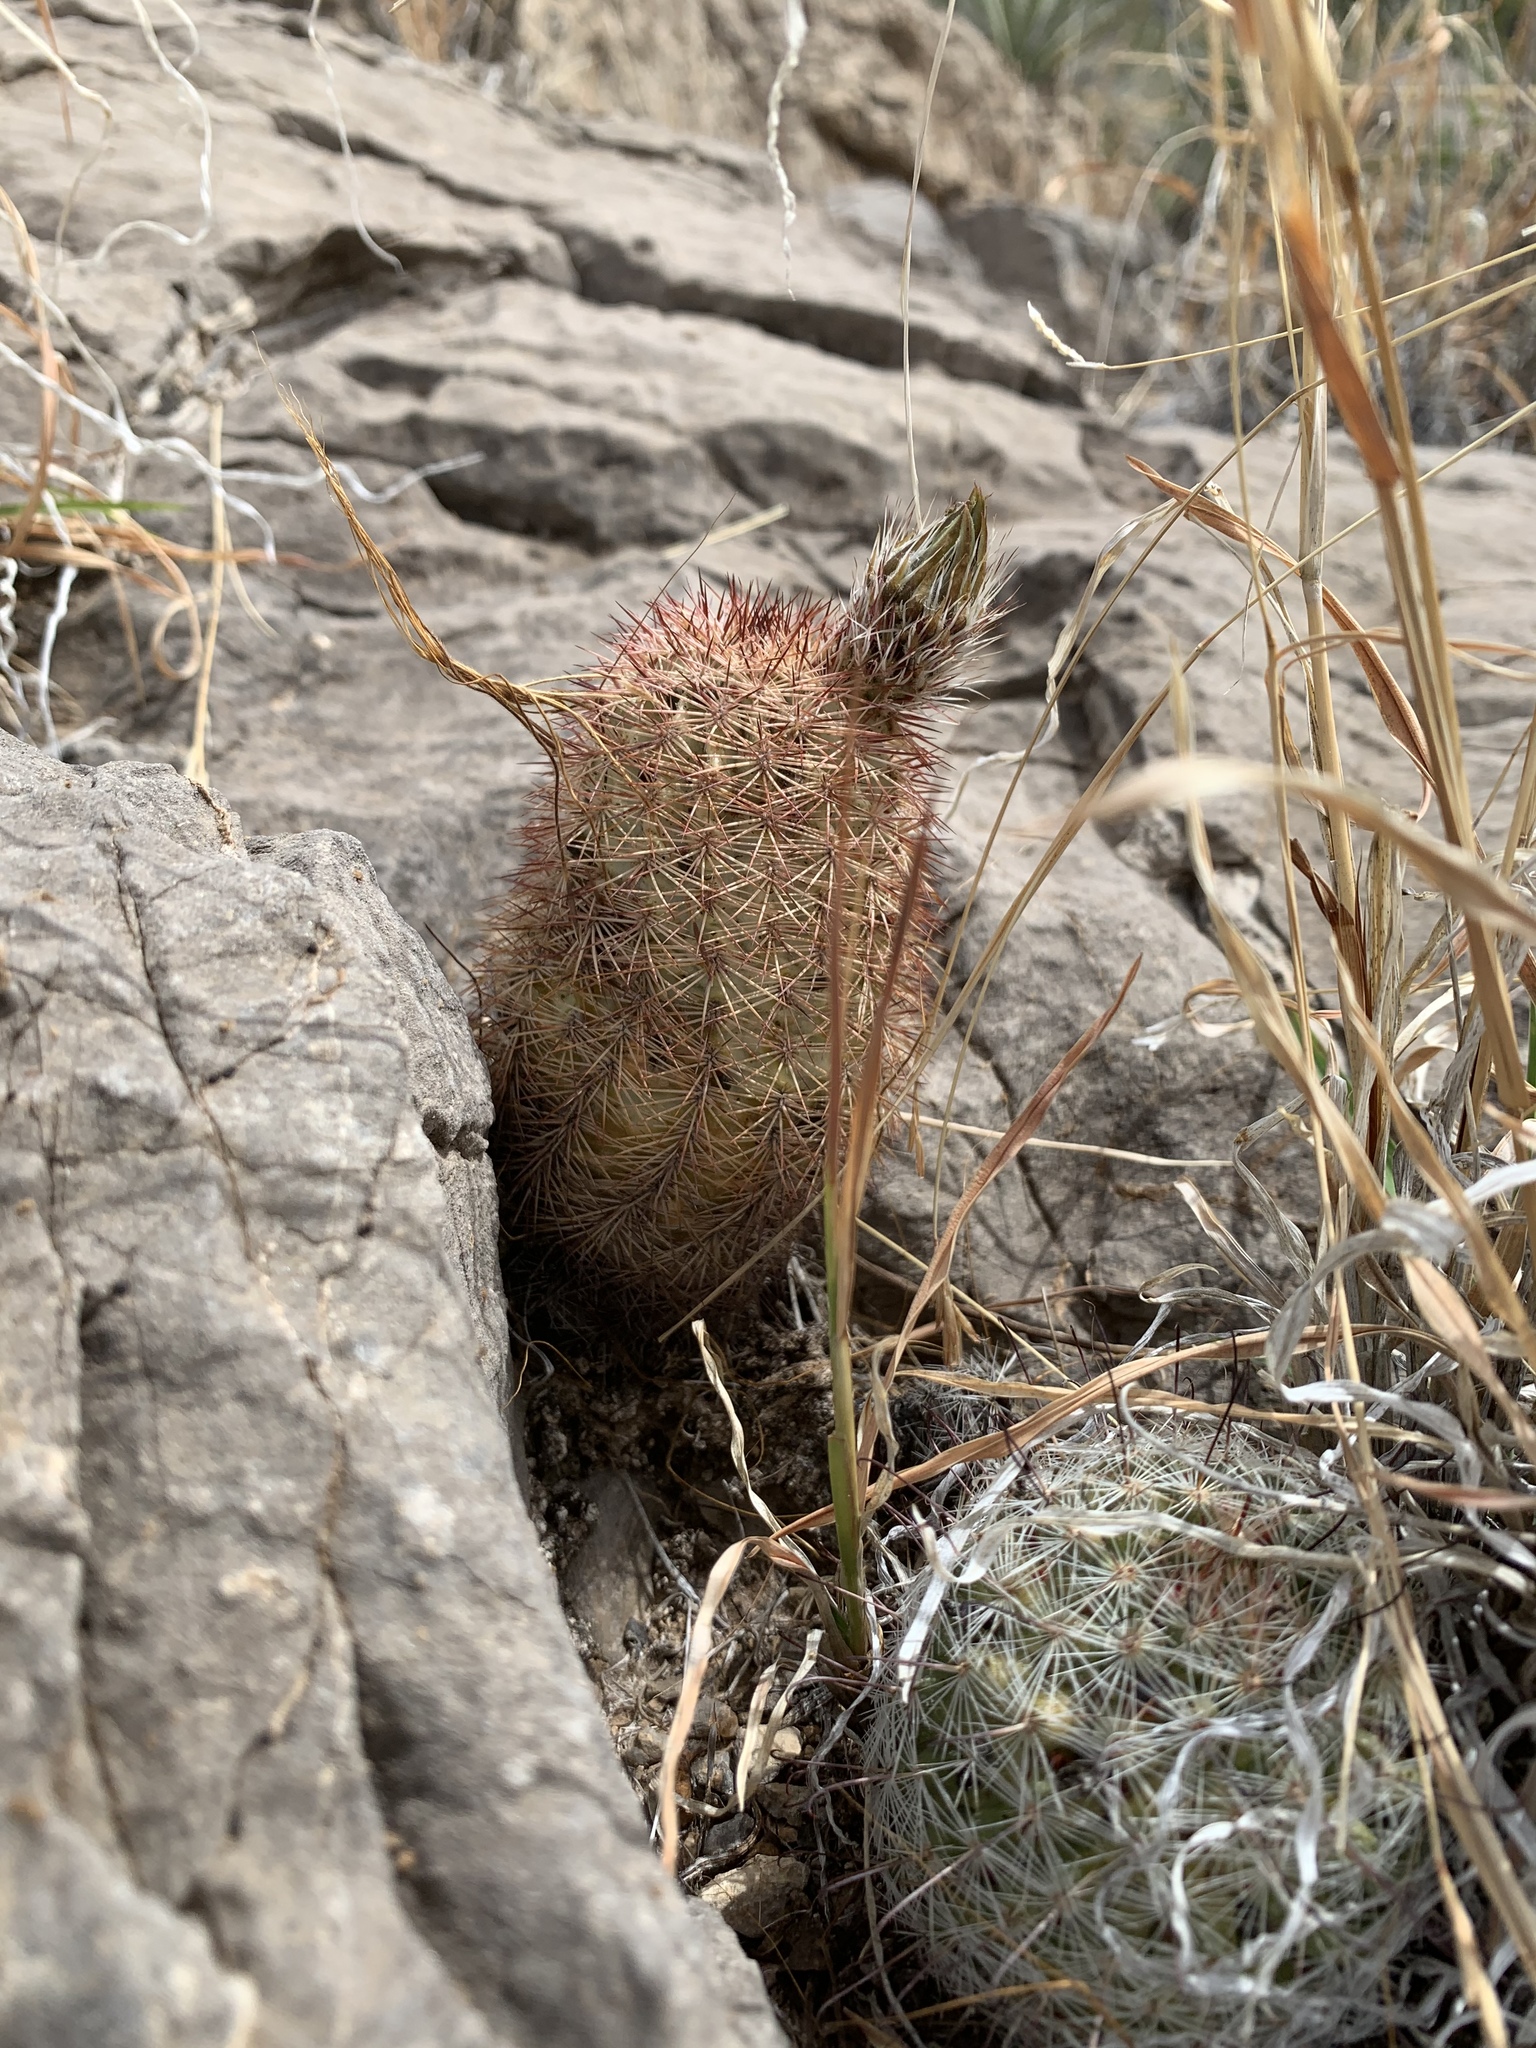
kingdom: Plantae
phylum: Tracheophyta
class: Magnoliopsida
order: Caryophyllales
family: Cactaceae
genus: Echinocereus
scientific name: Echinocereus dasyacanthus
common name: Spiny hedgehog cactus
